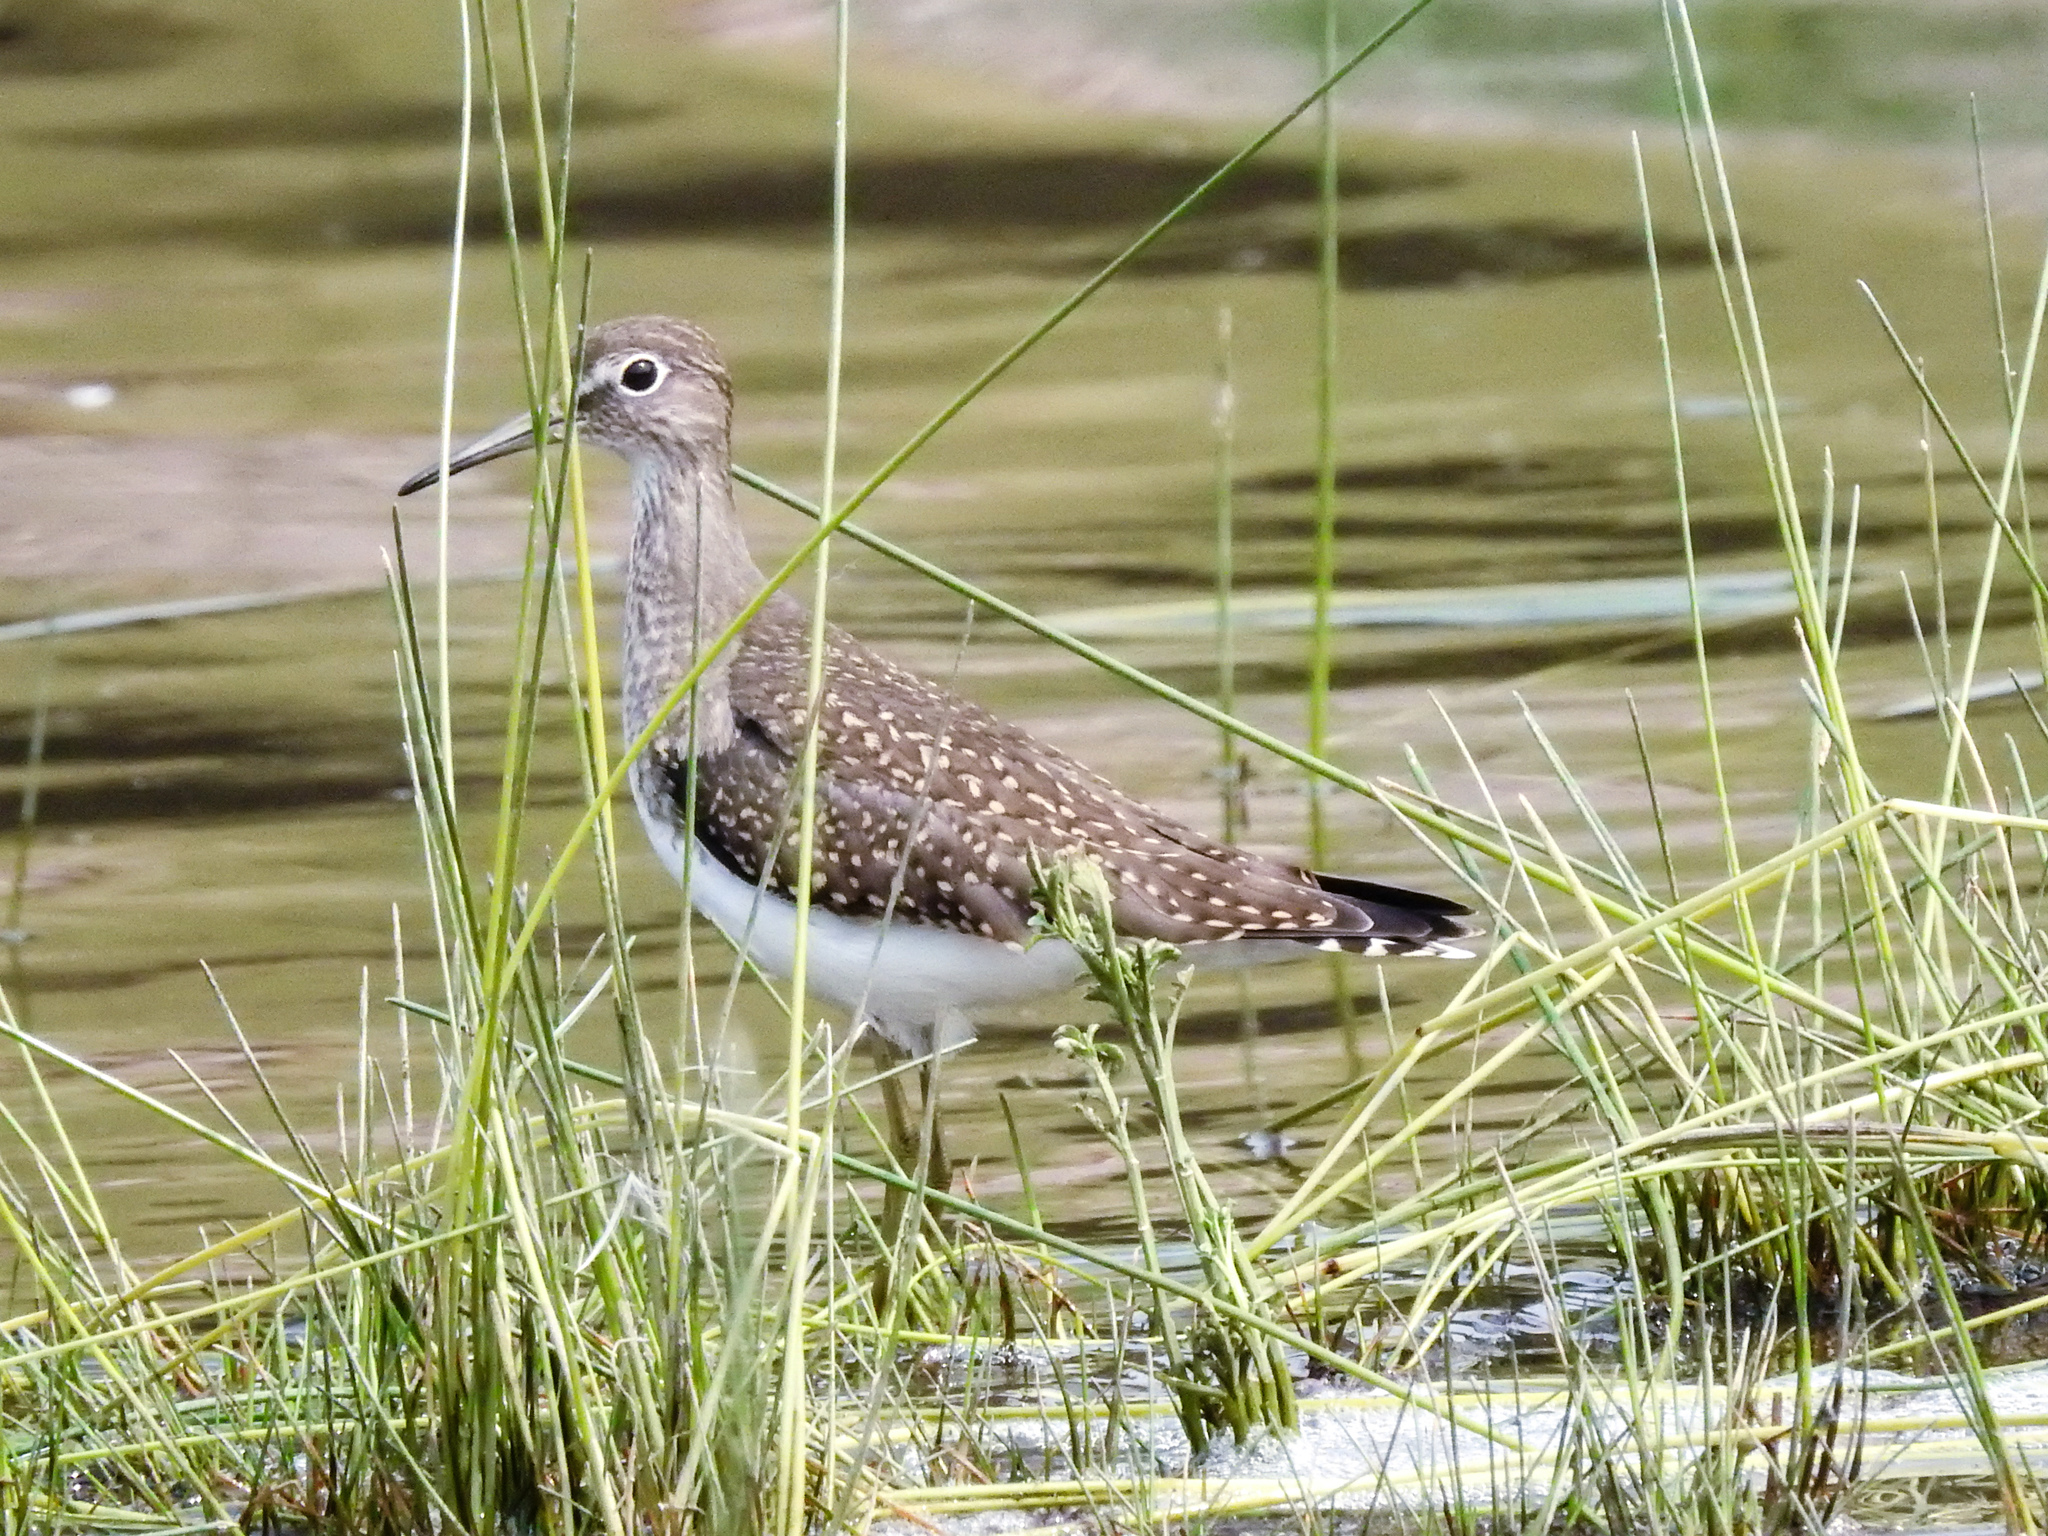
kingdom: Animalia
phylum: Chordata
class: Aves
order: Charadriiformes
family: Scolopacidae
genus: Tringa
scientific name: Tringa solitaria
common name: Solitary sandpiper
